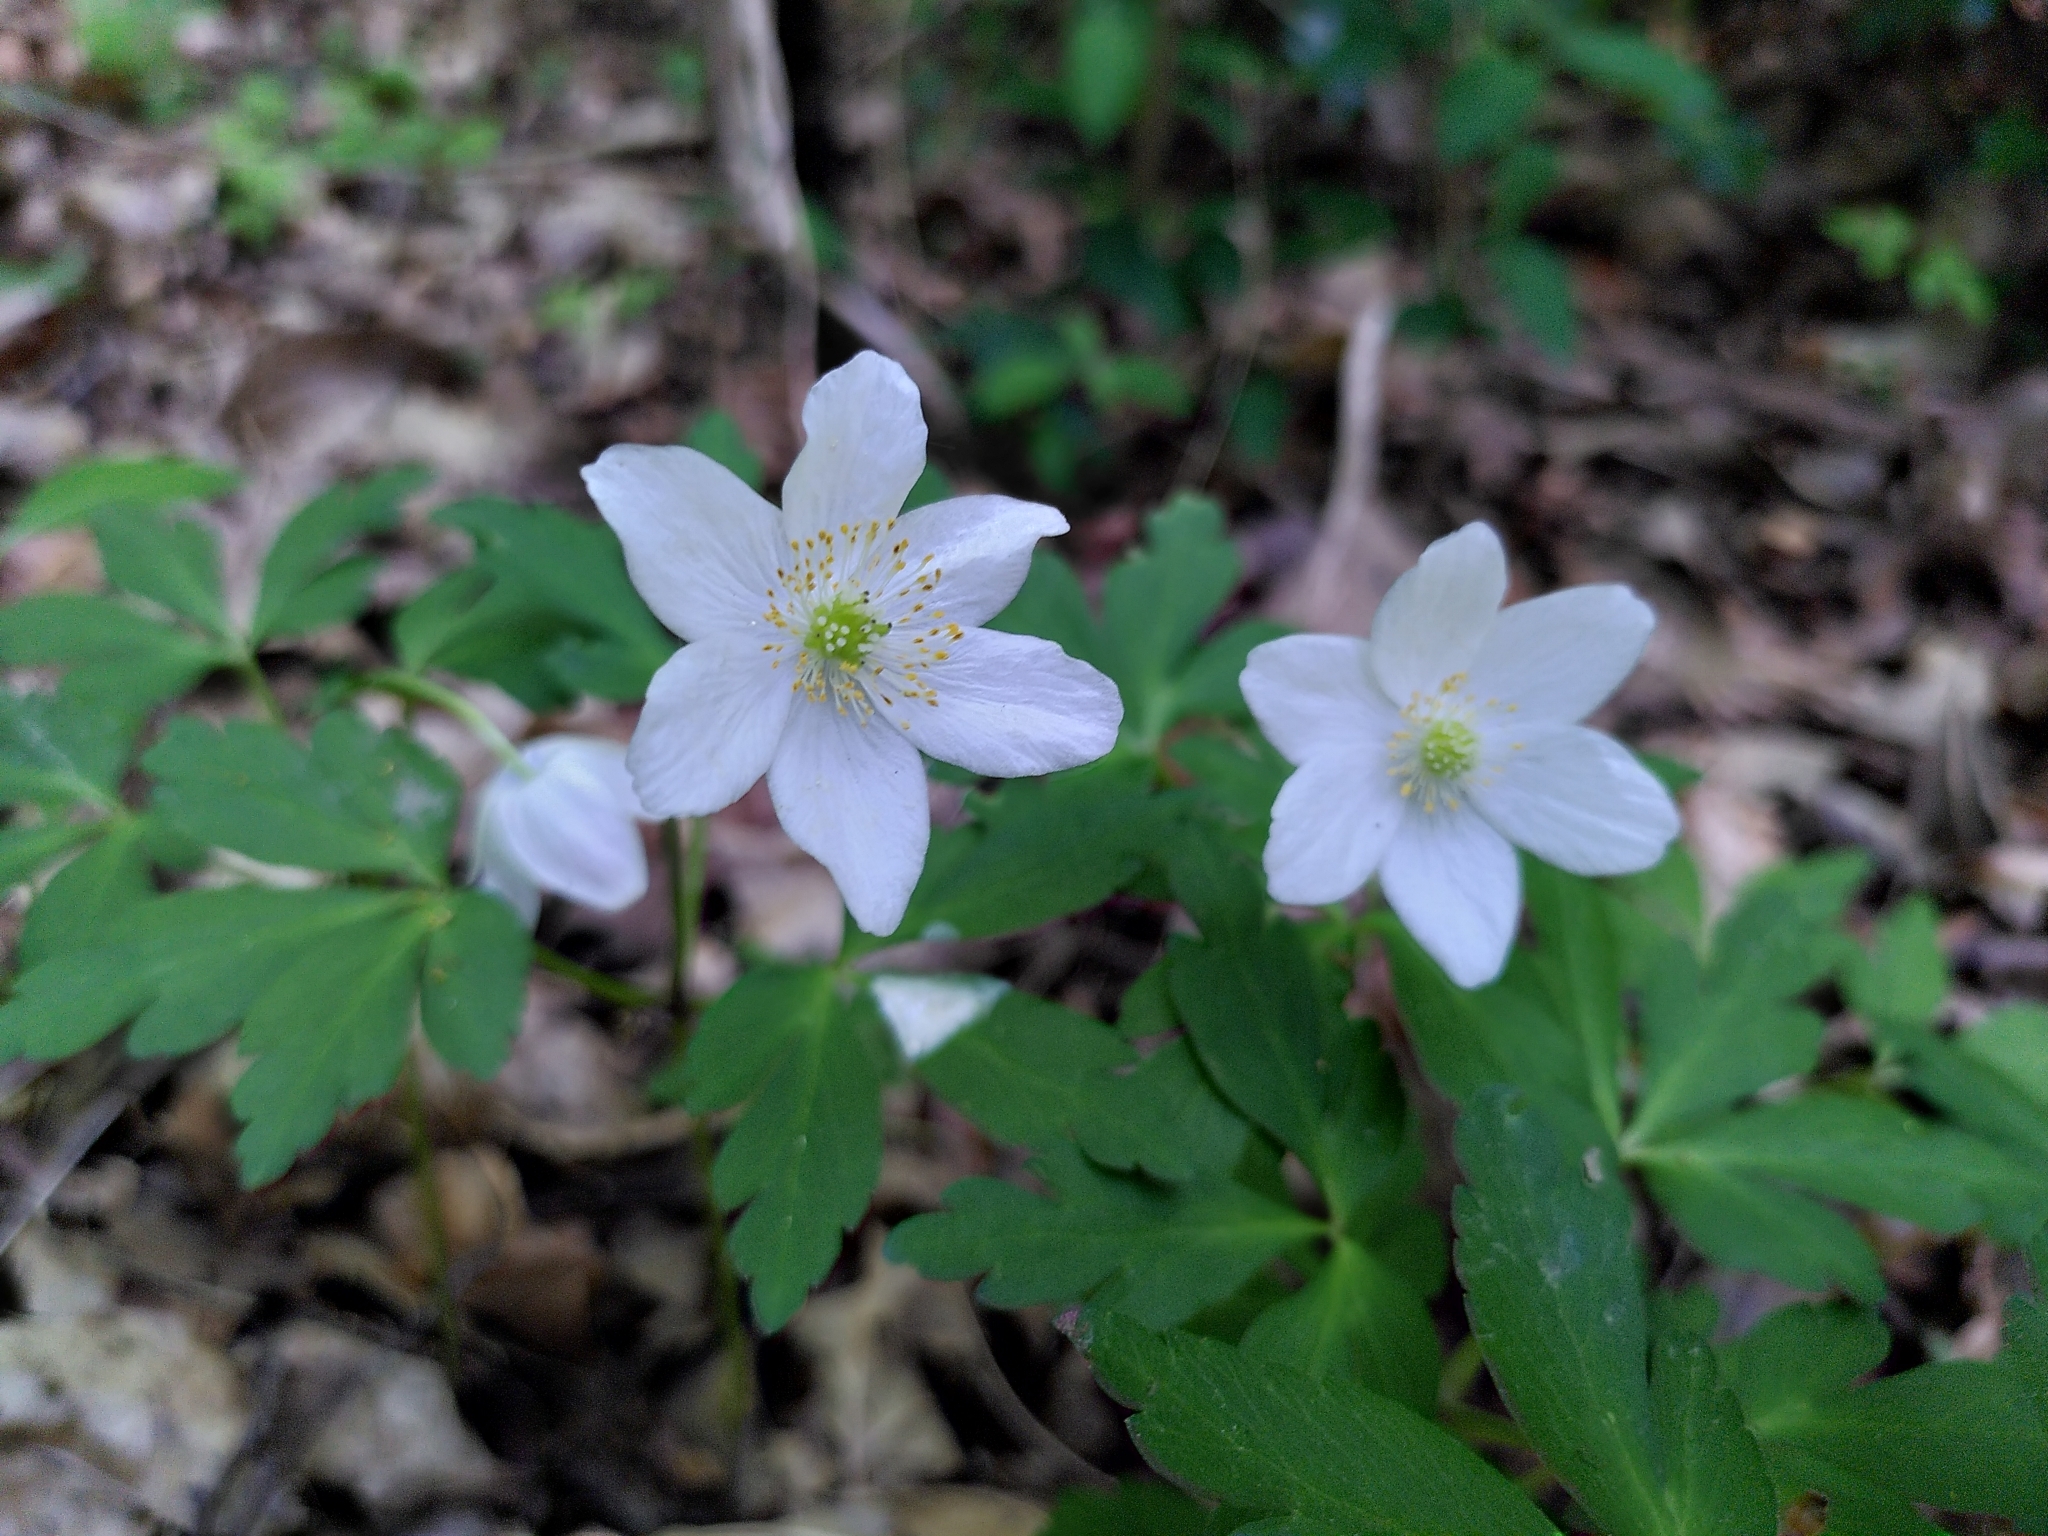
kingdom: Plantae
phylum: Tracheophyta
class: Magnoliopsida
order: Ranunculales
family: Ranunculaceae
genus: Anemone
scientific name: Anemone nemorosa
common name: Wood anemone
